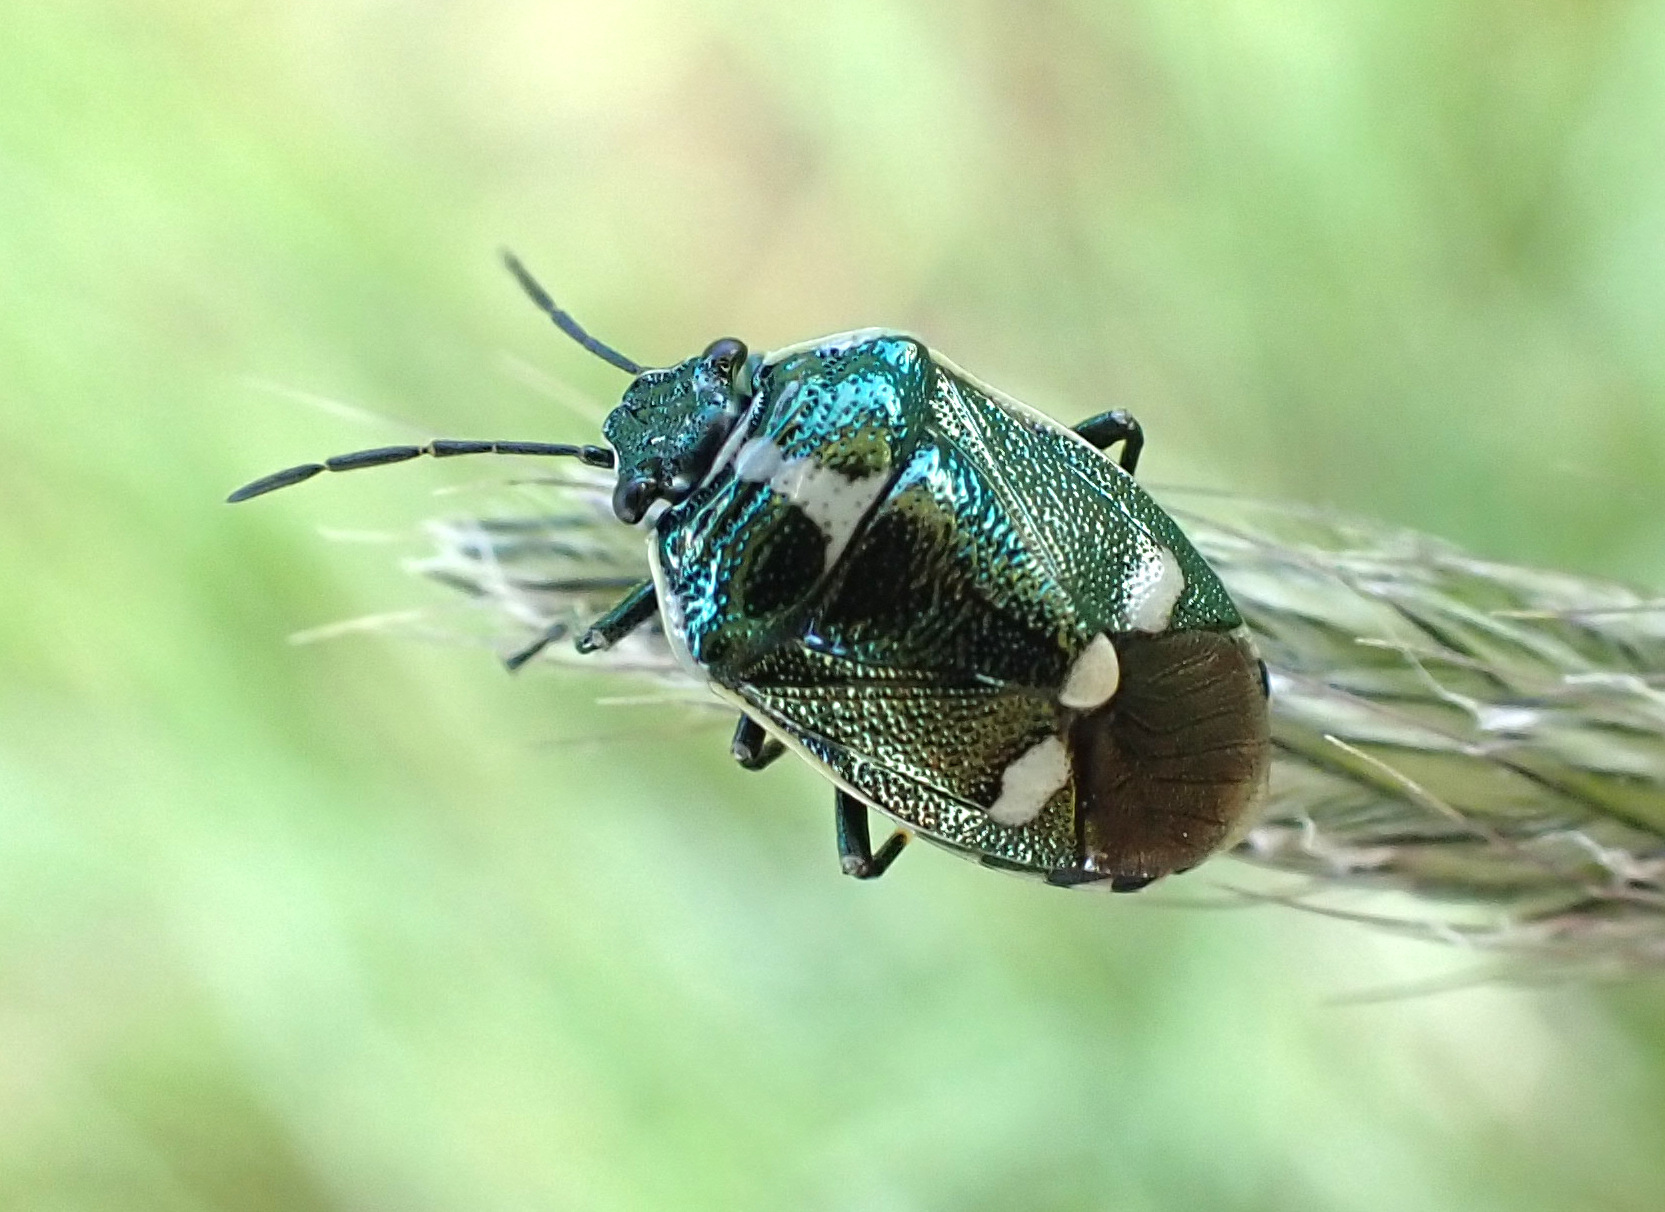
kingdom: Animalia
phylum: Arthropoda
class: Insecta
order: Hemiptera
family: Pentatomidae
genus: Eurydema
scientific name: Eurydema oleracea
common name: Cabbage bug
